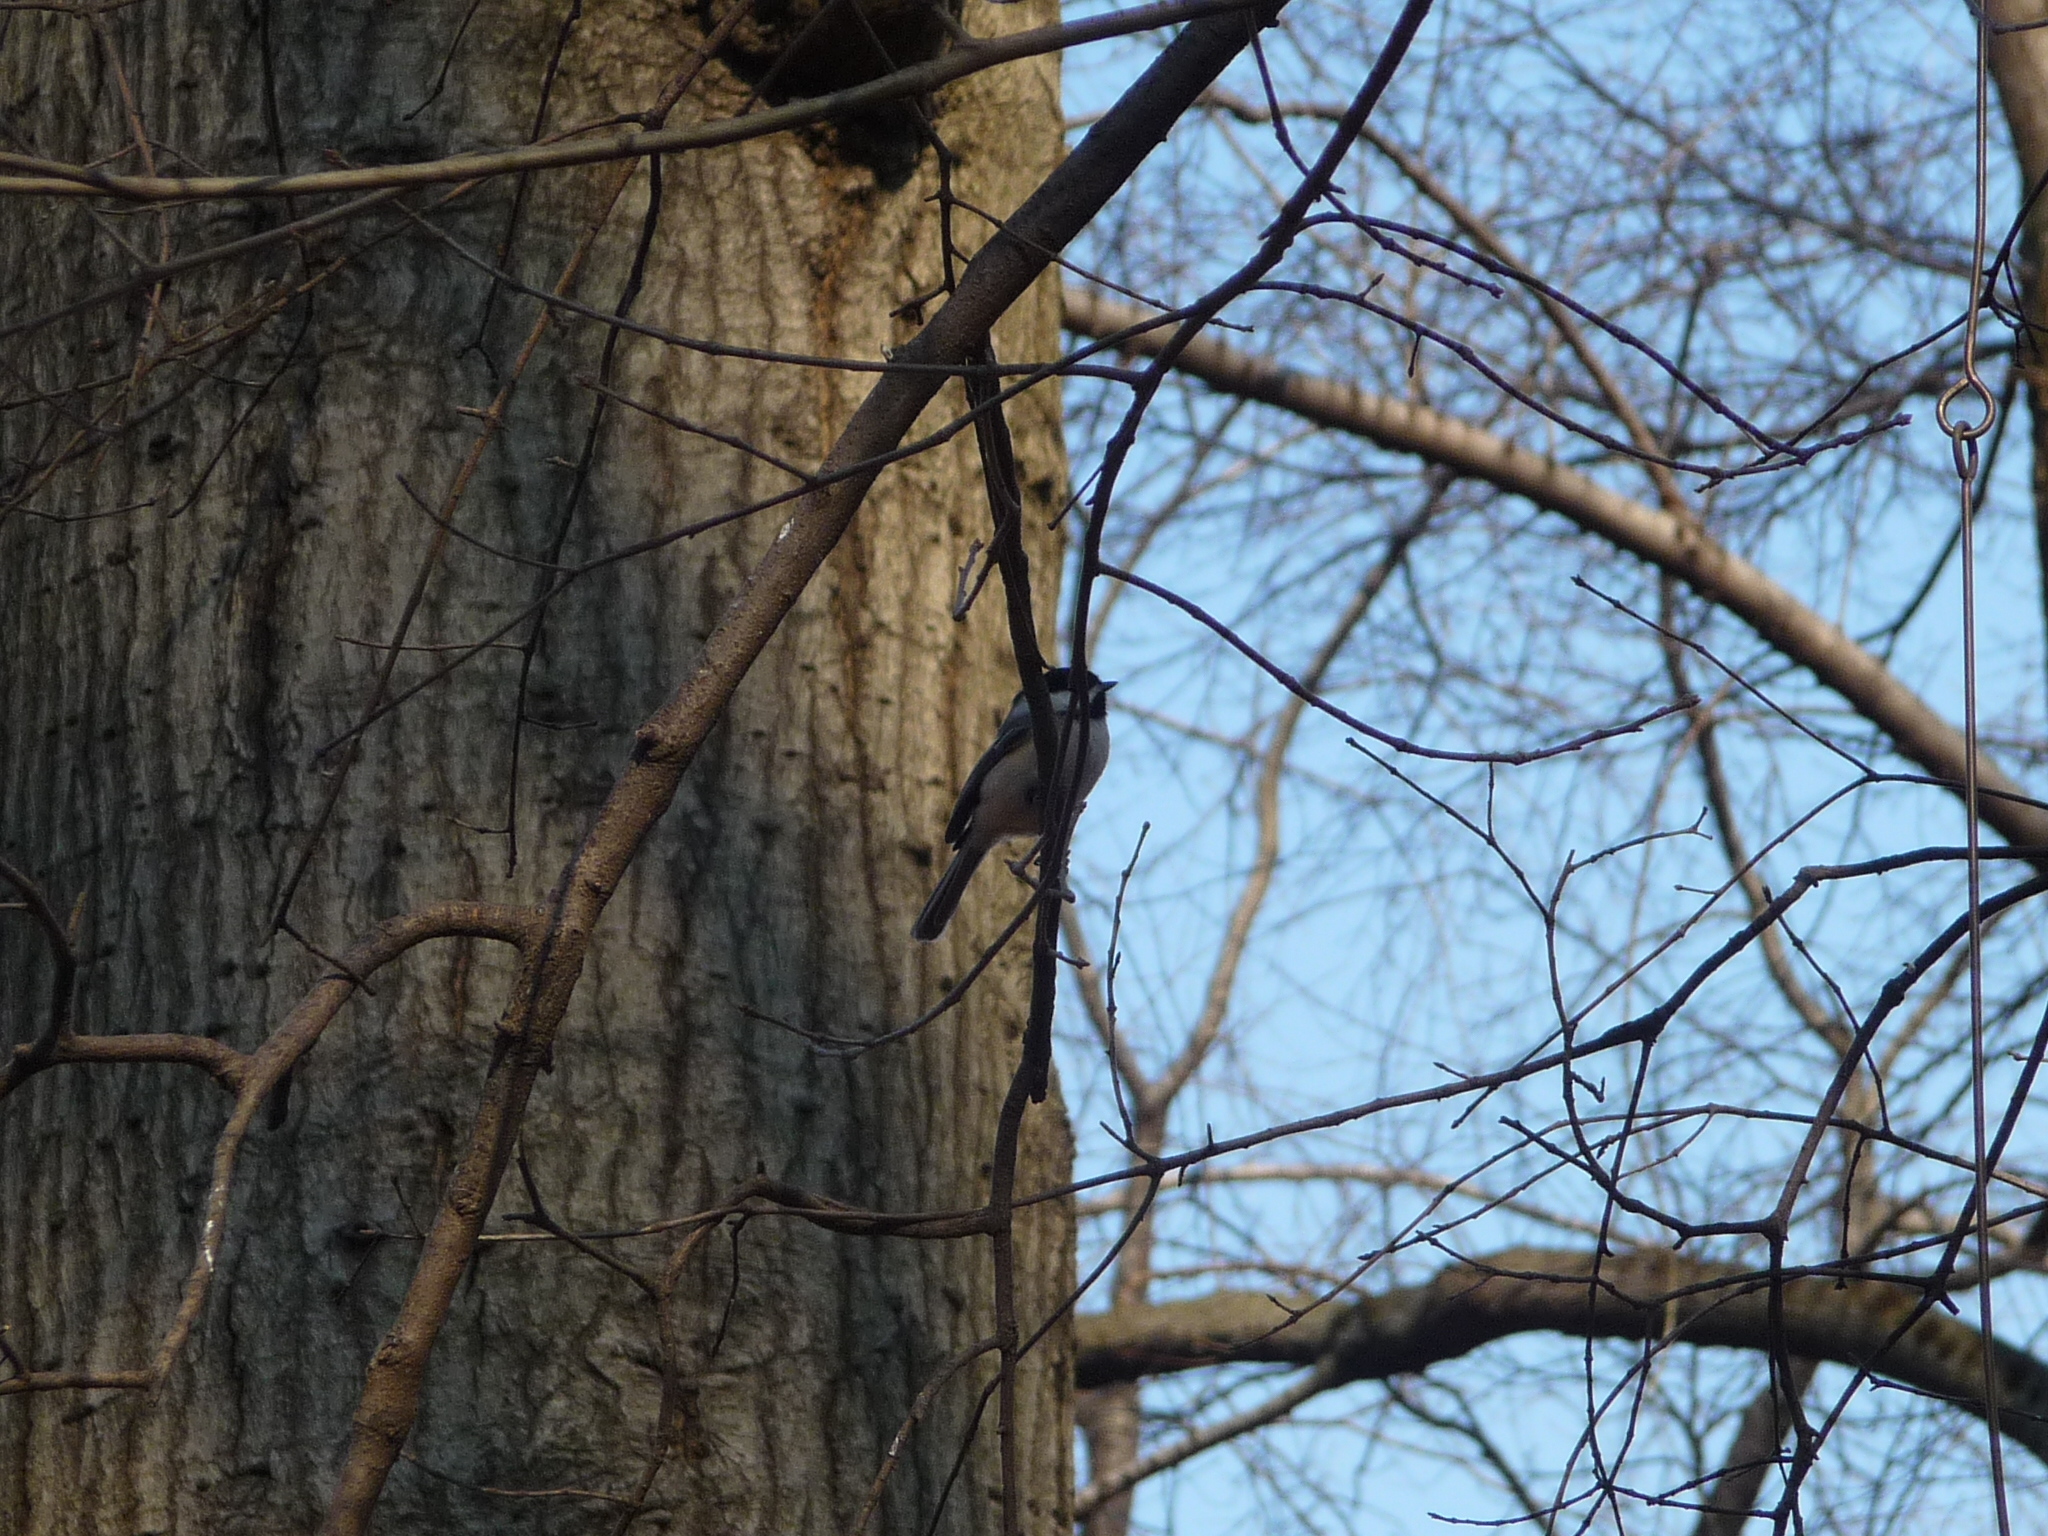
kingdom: Animalia
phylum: Chordata
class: Aves
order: Passeriformes
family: Paridae
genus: Poecile
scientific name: Poecile atricapillus
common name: Black-capped chickadee
